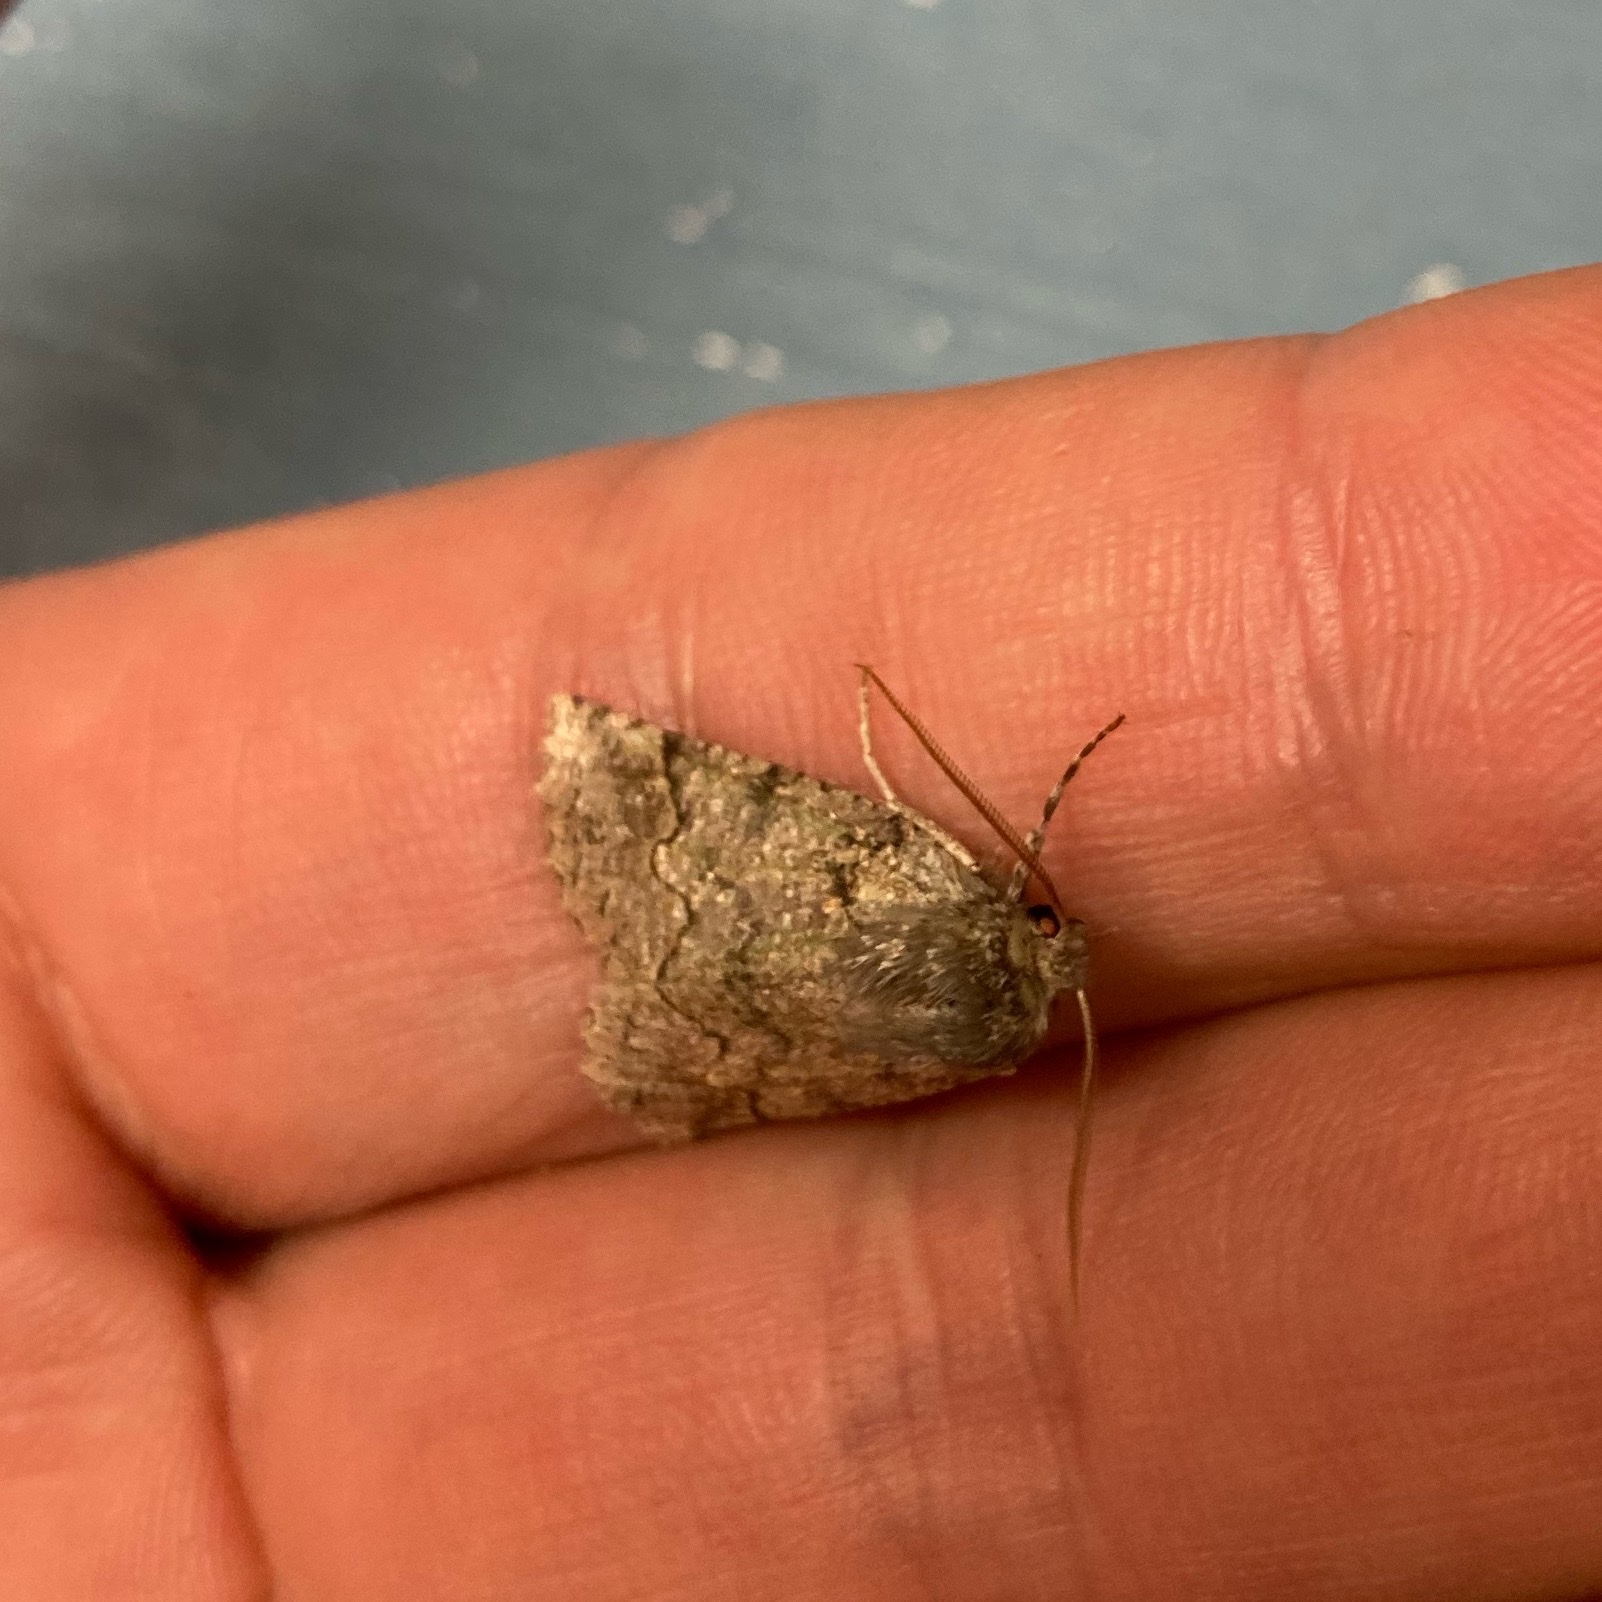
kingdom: Animalia
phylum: Arthropoda
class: Insecta
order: Lepidoptera
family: Geometridae
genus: Declana
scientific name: Declana floccosa
